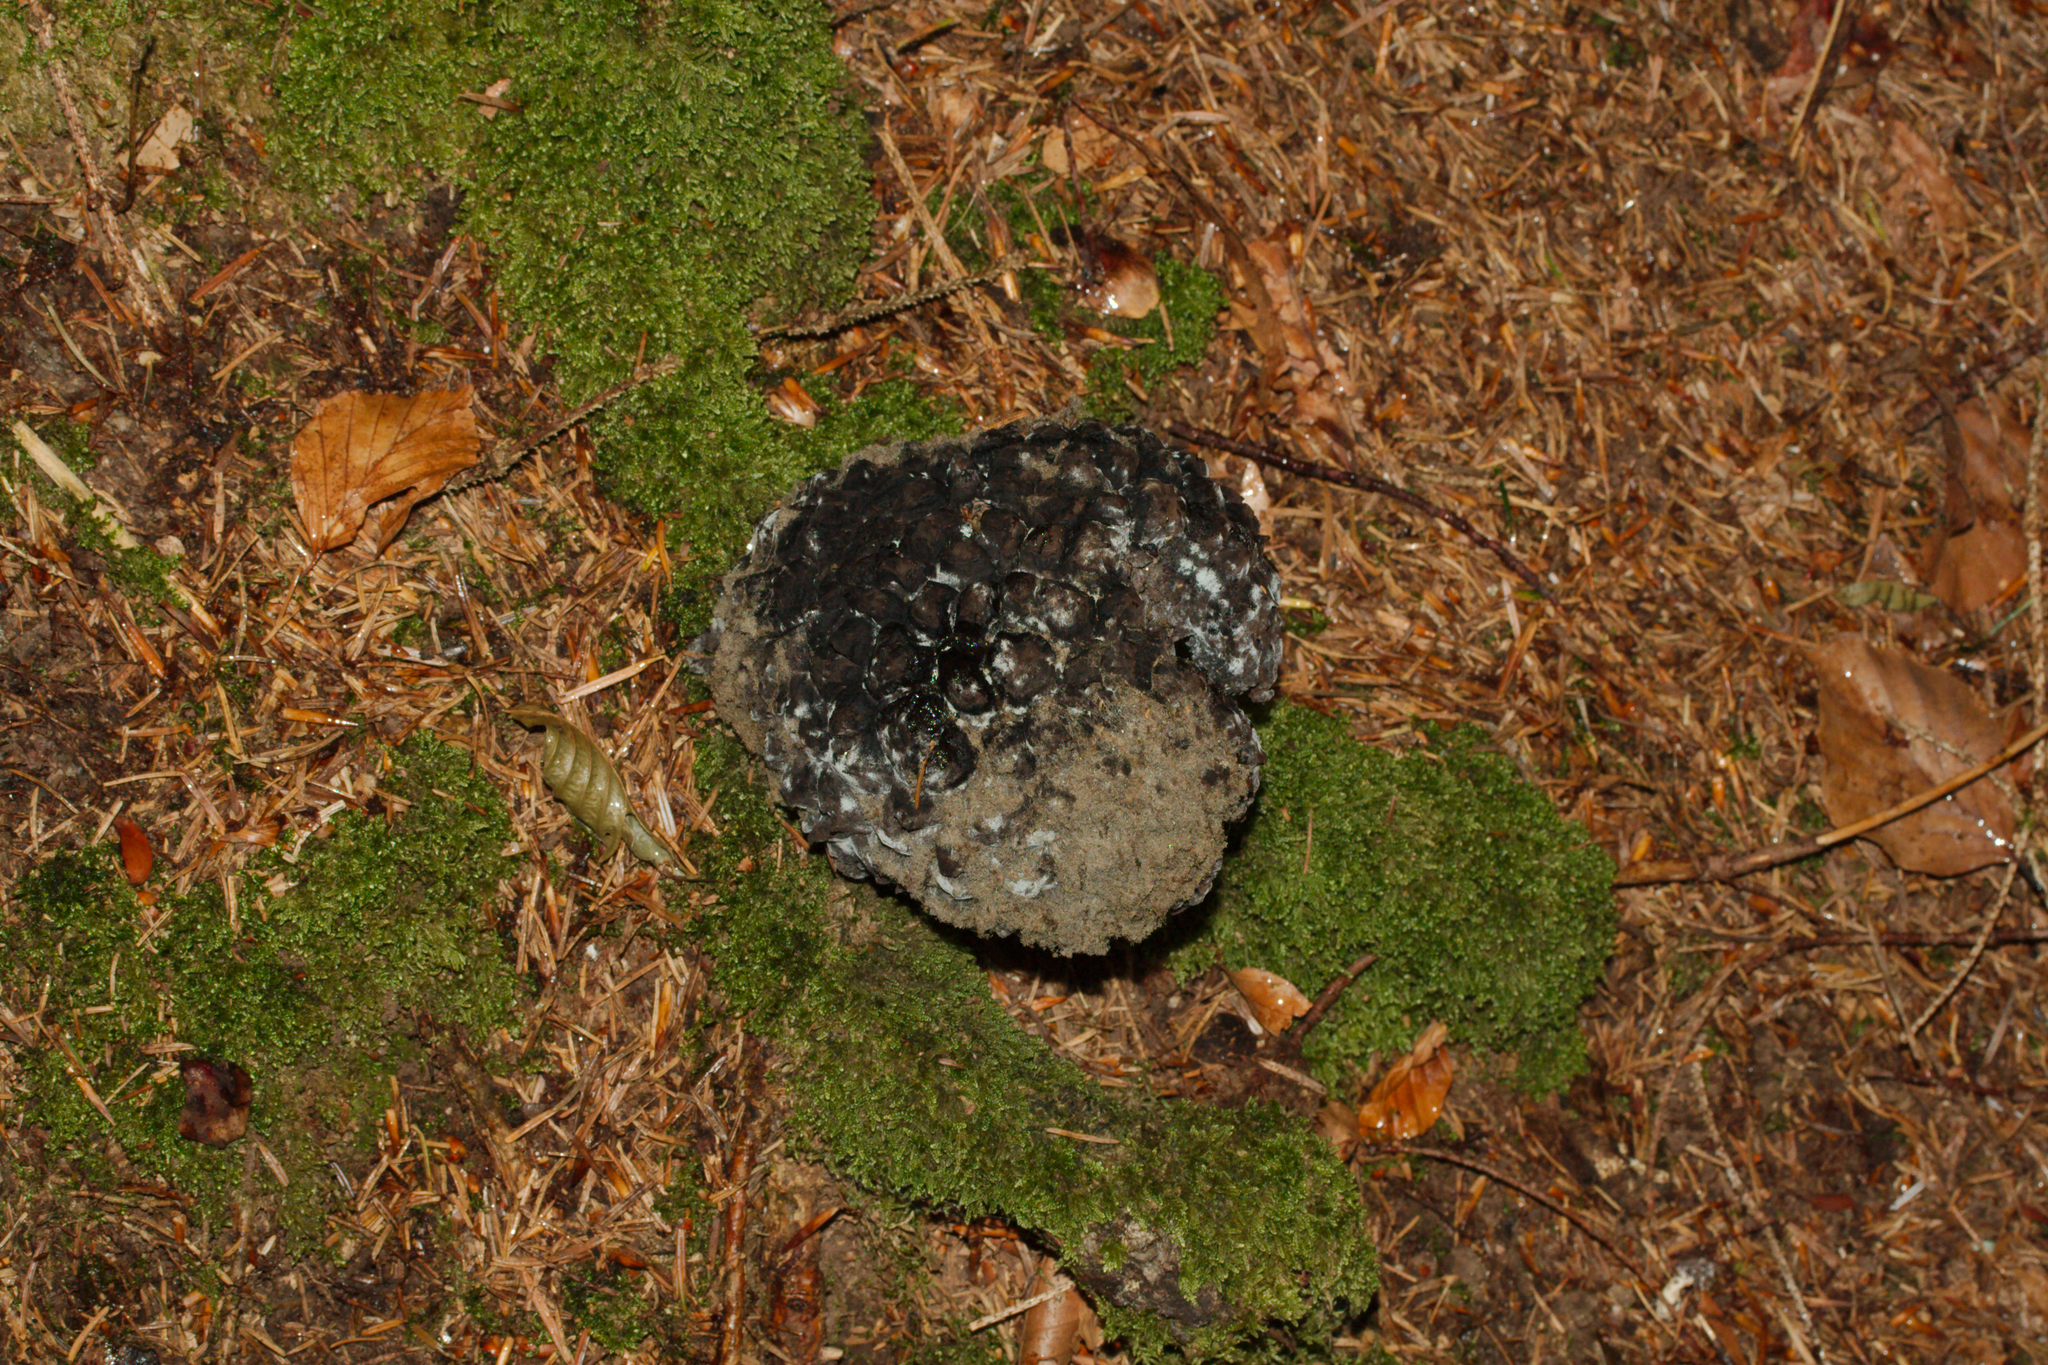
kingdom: Fungi
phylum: Basidiomycota
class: Agaricomycetes
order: Boletales
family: Boletaceae
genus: Strobilomyces
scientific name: Strobilomyces strobilaceus
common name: Old man of the woods
